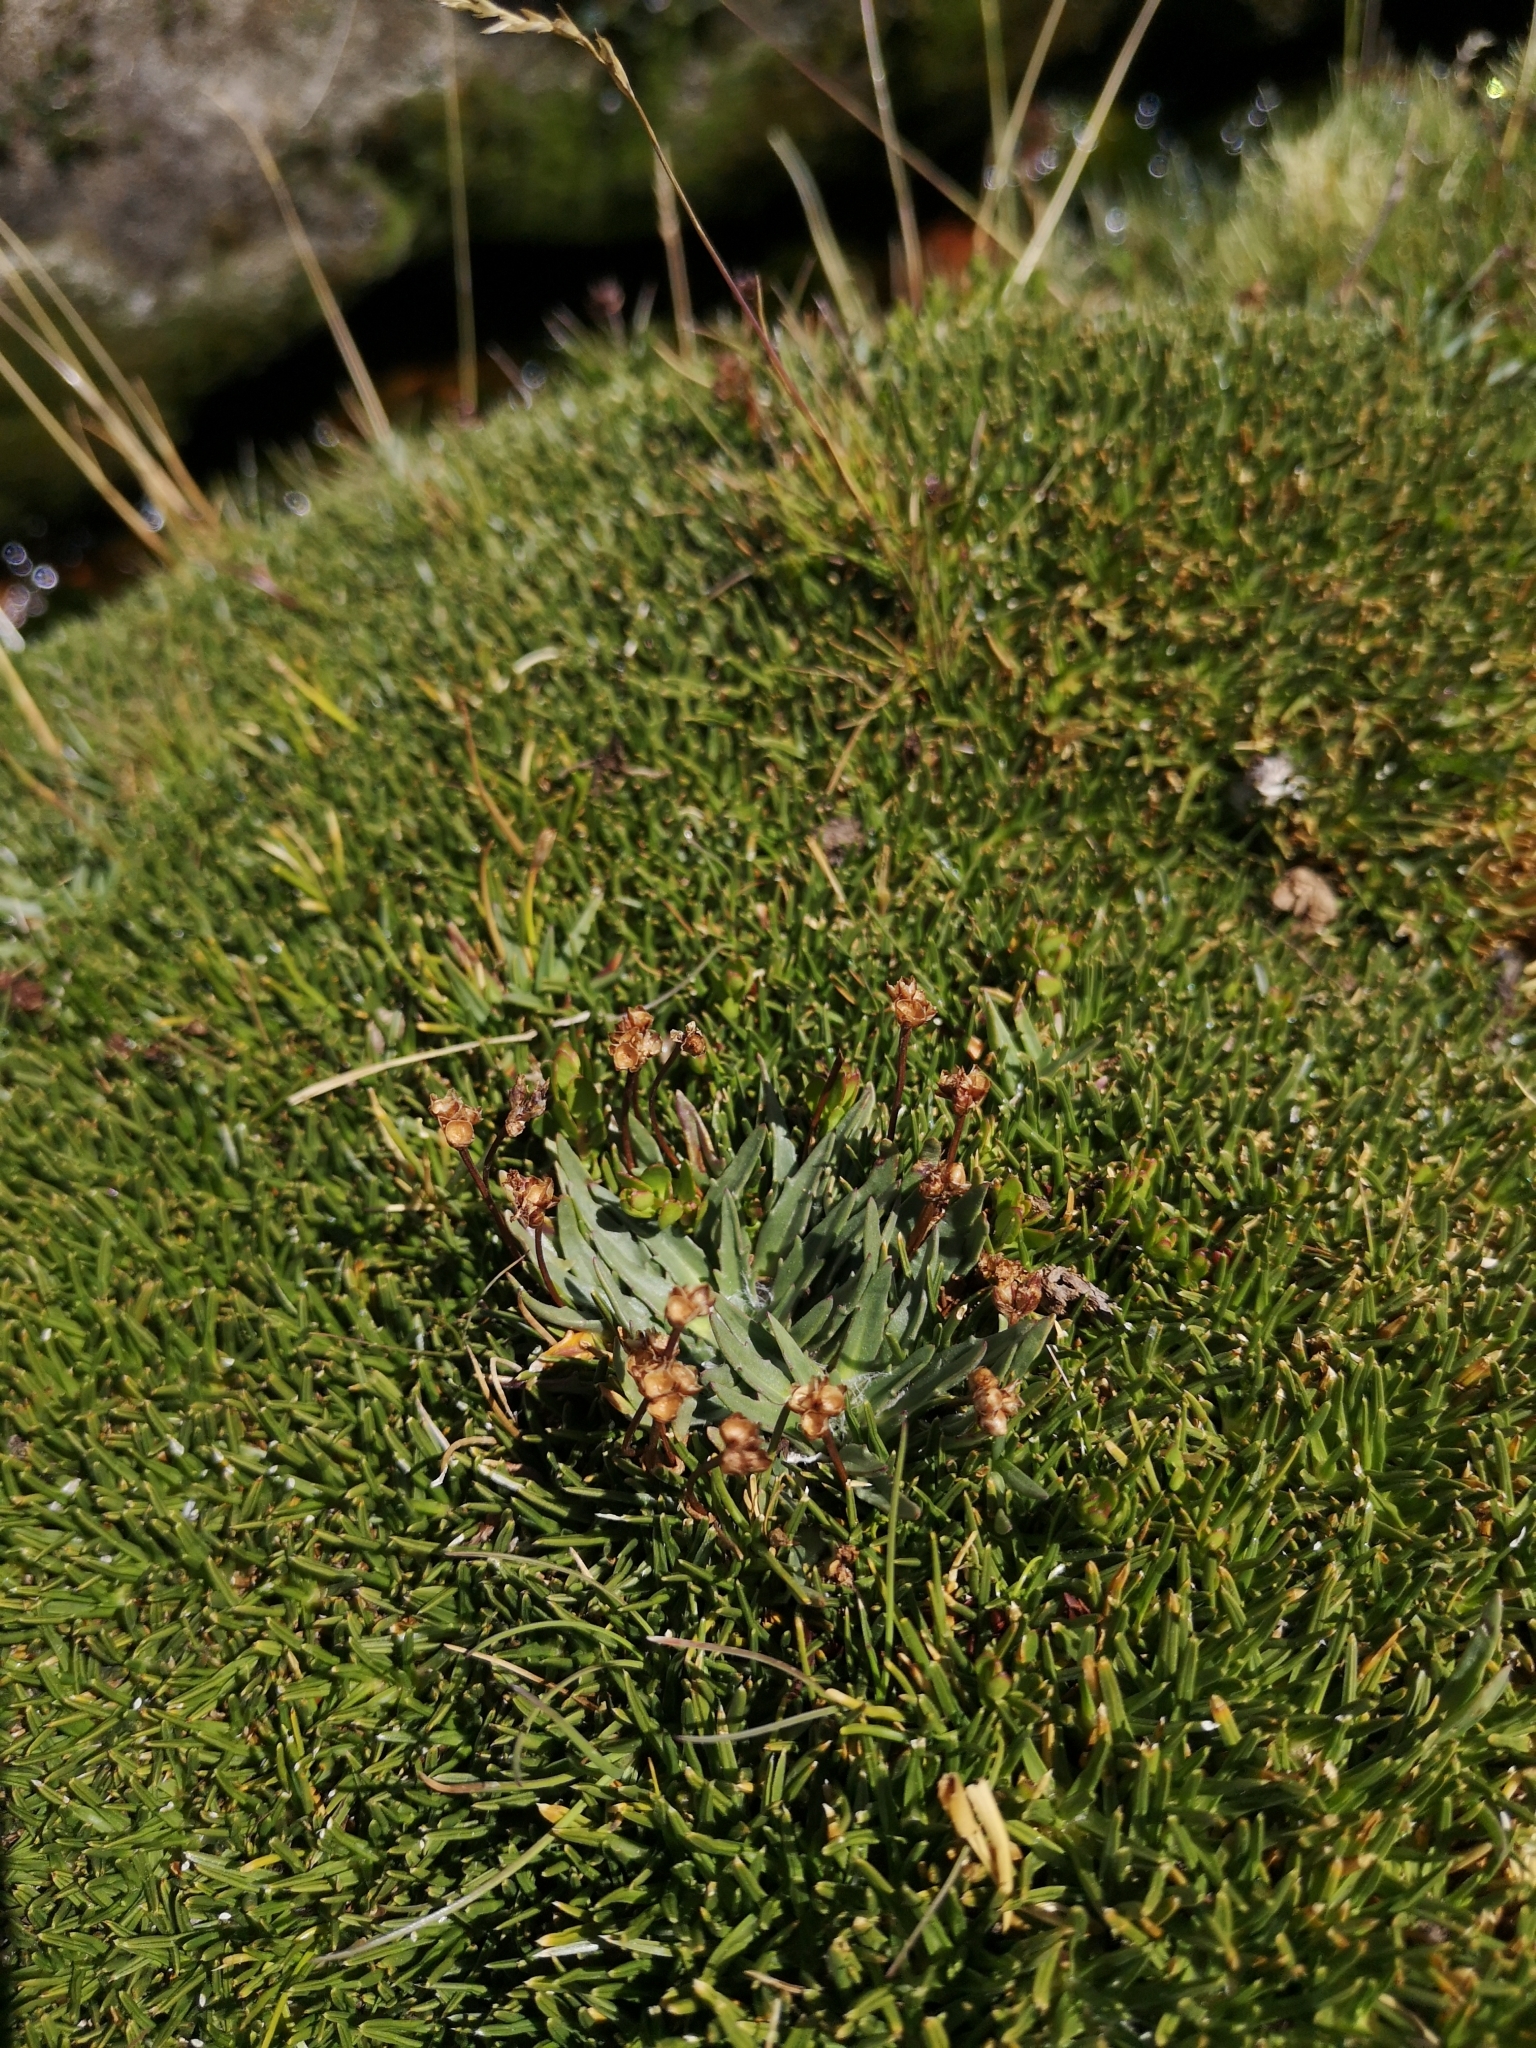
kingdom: Plantae
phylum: Tracheophyta
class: Magnoliopsida
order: Lamiales
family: Plantaginaceae
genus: Plantago
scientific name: Plantago barbata
